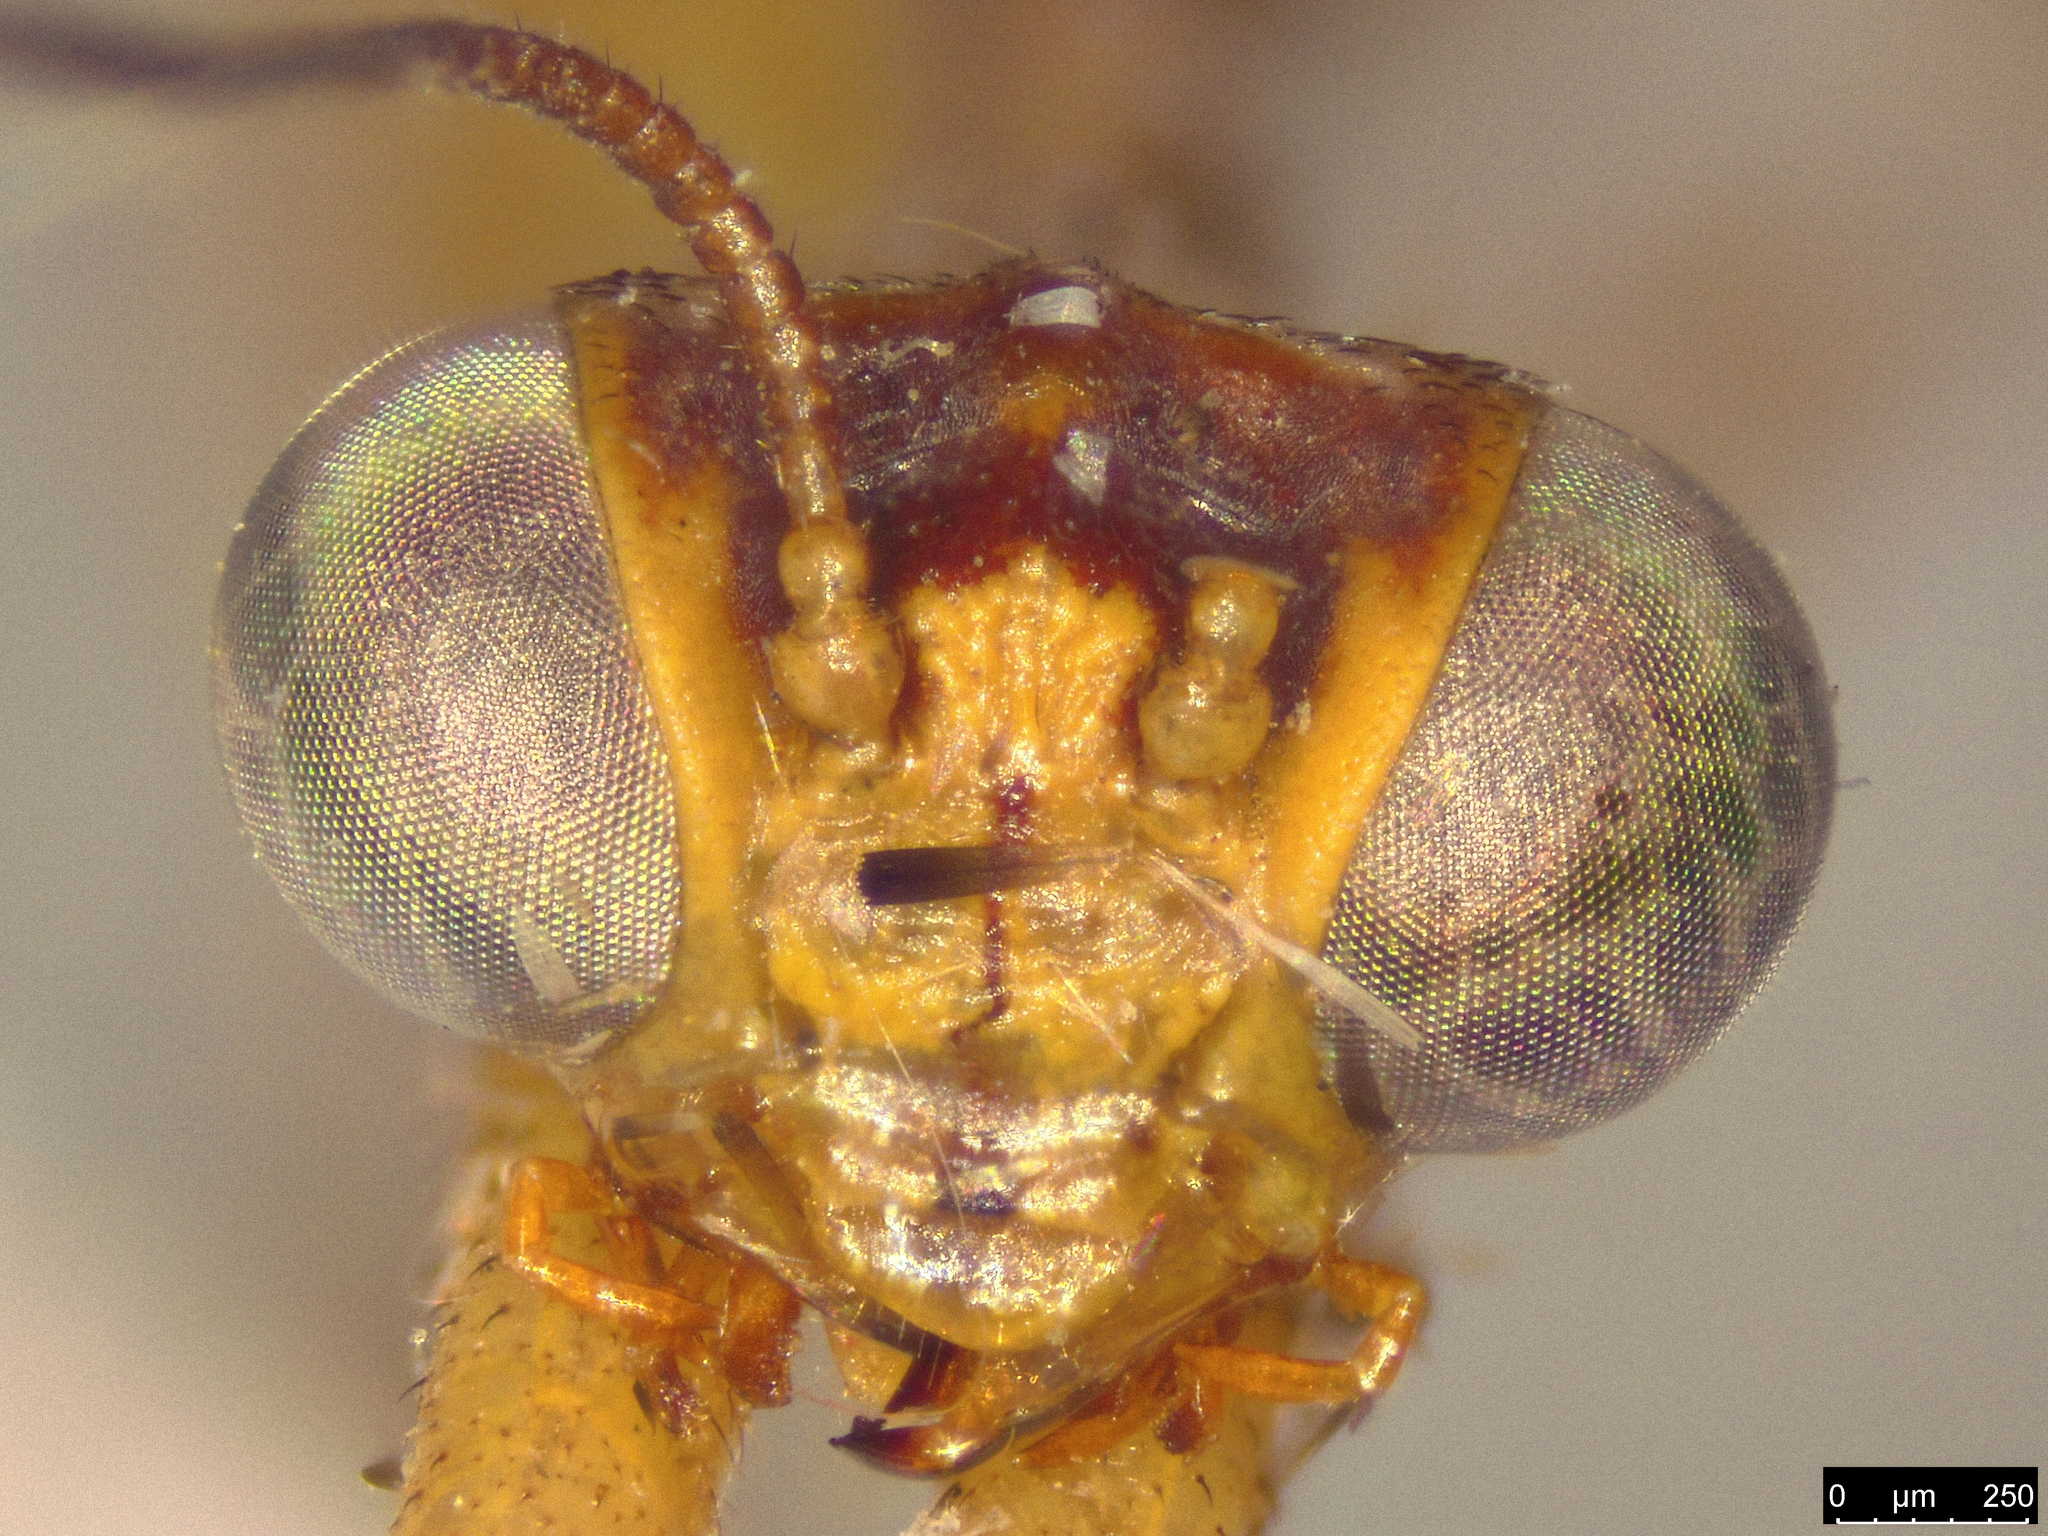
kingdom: Animalia
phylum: Arthropoda
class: Insecta
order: Neuroptera
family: Mantispidae
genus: Campion
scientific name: Campion callosus
